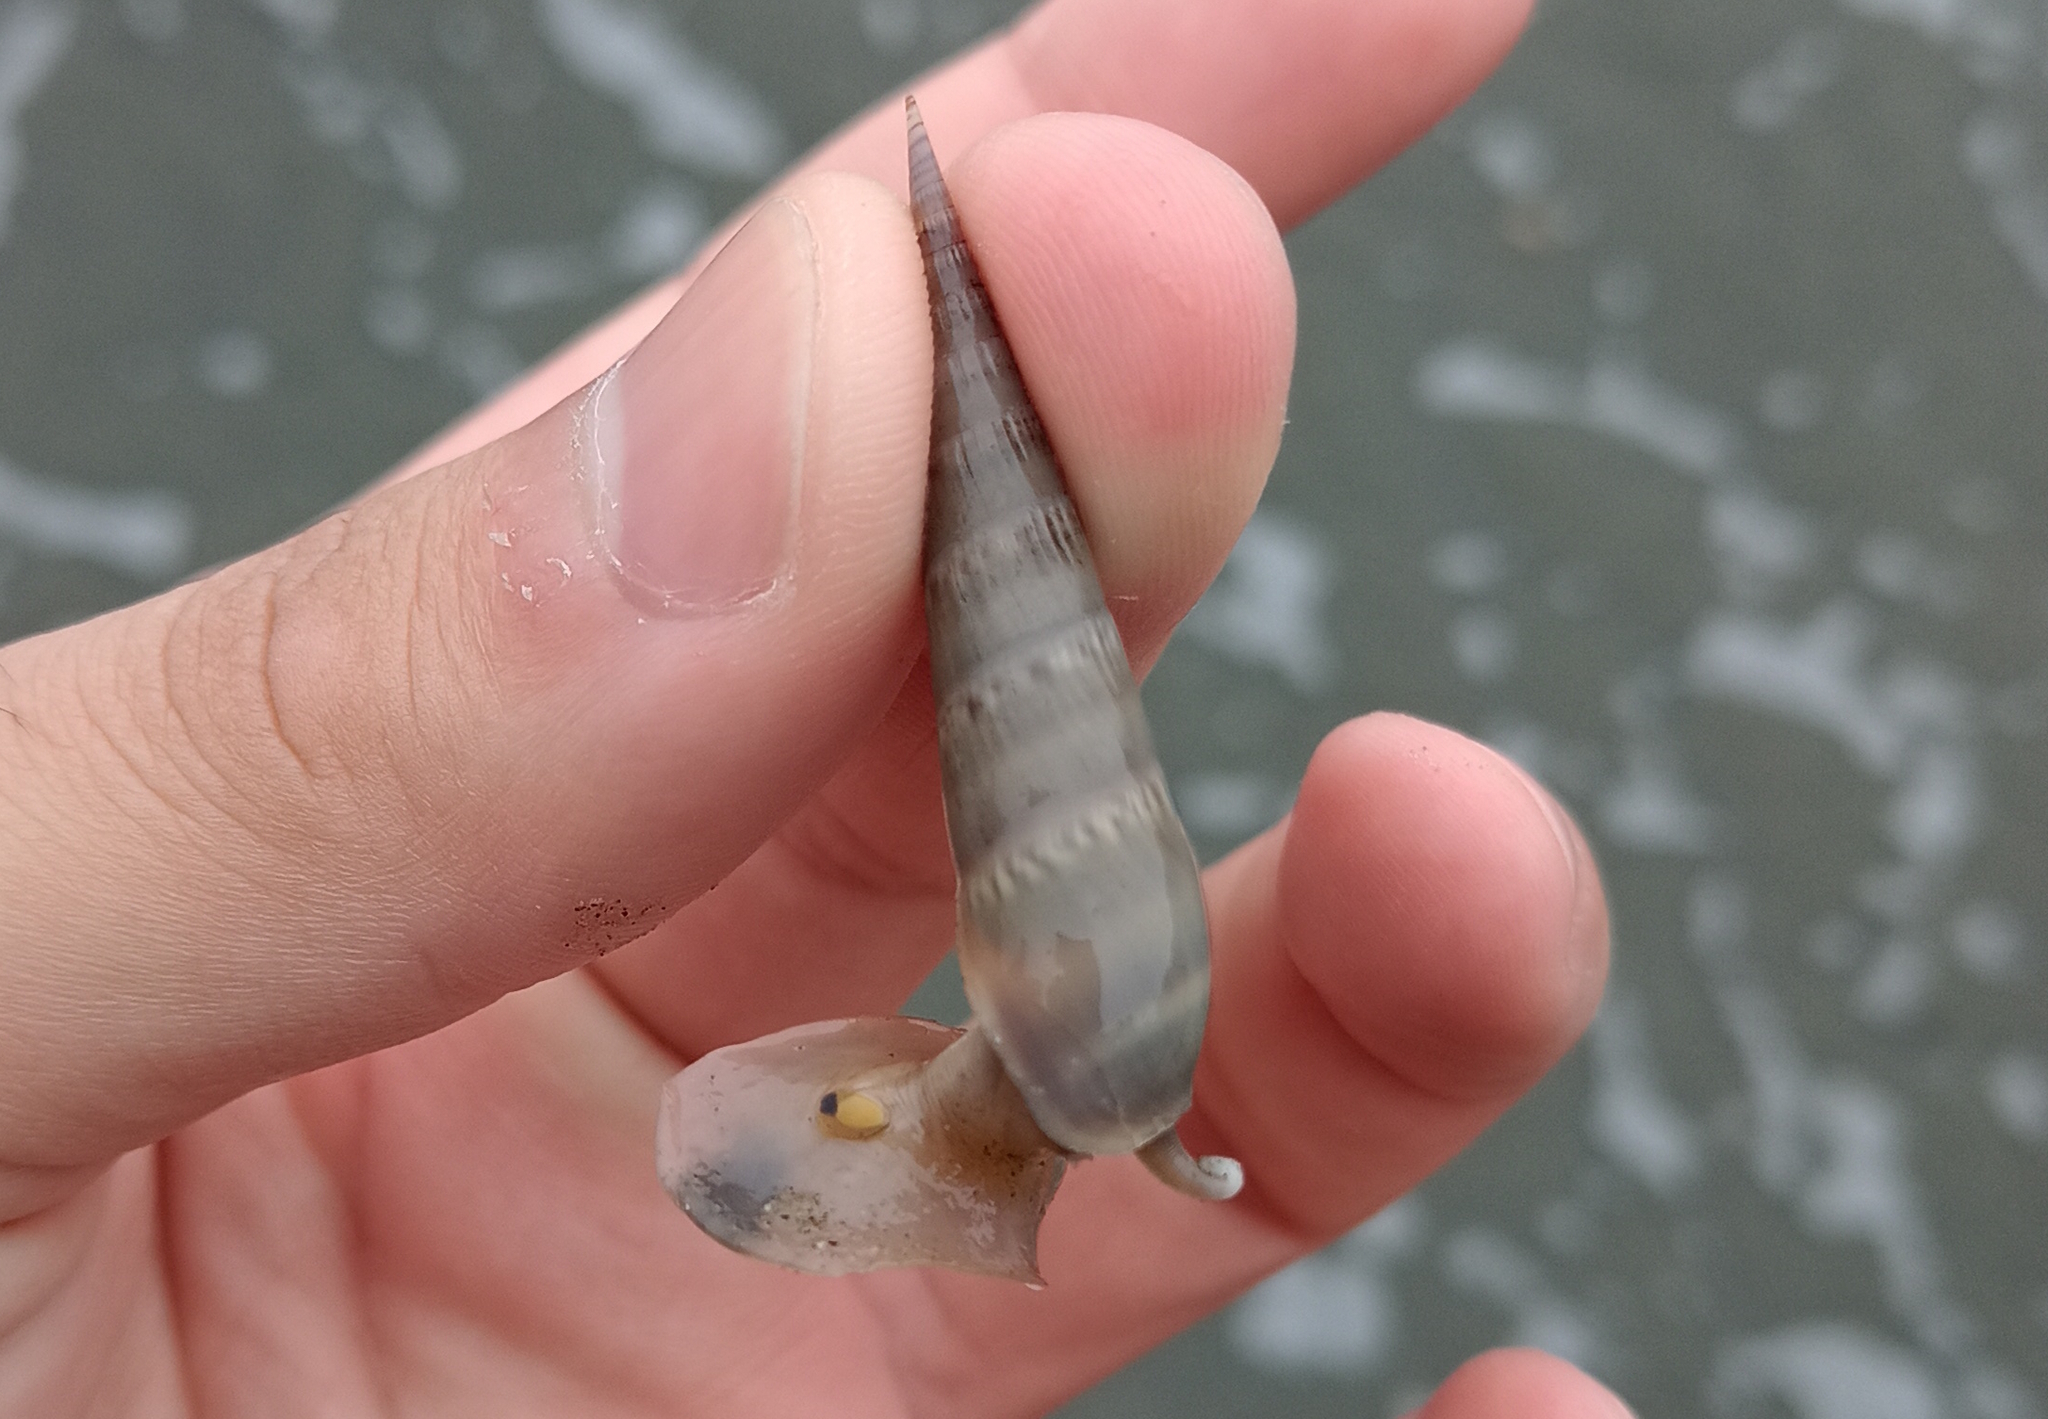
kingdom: Animalia
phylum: Mollusca
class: Gastropoda
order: Neogastropoda
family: Terebridae
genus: Hastula
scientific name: Hastula cinerea
